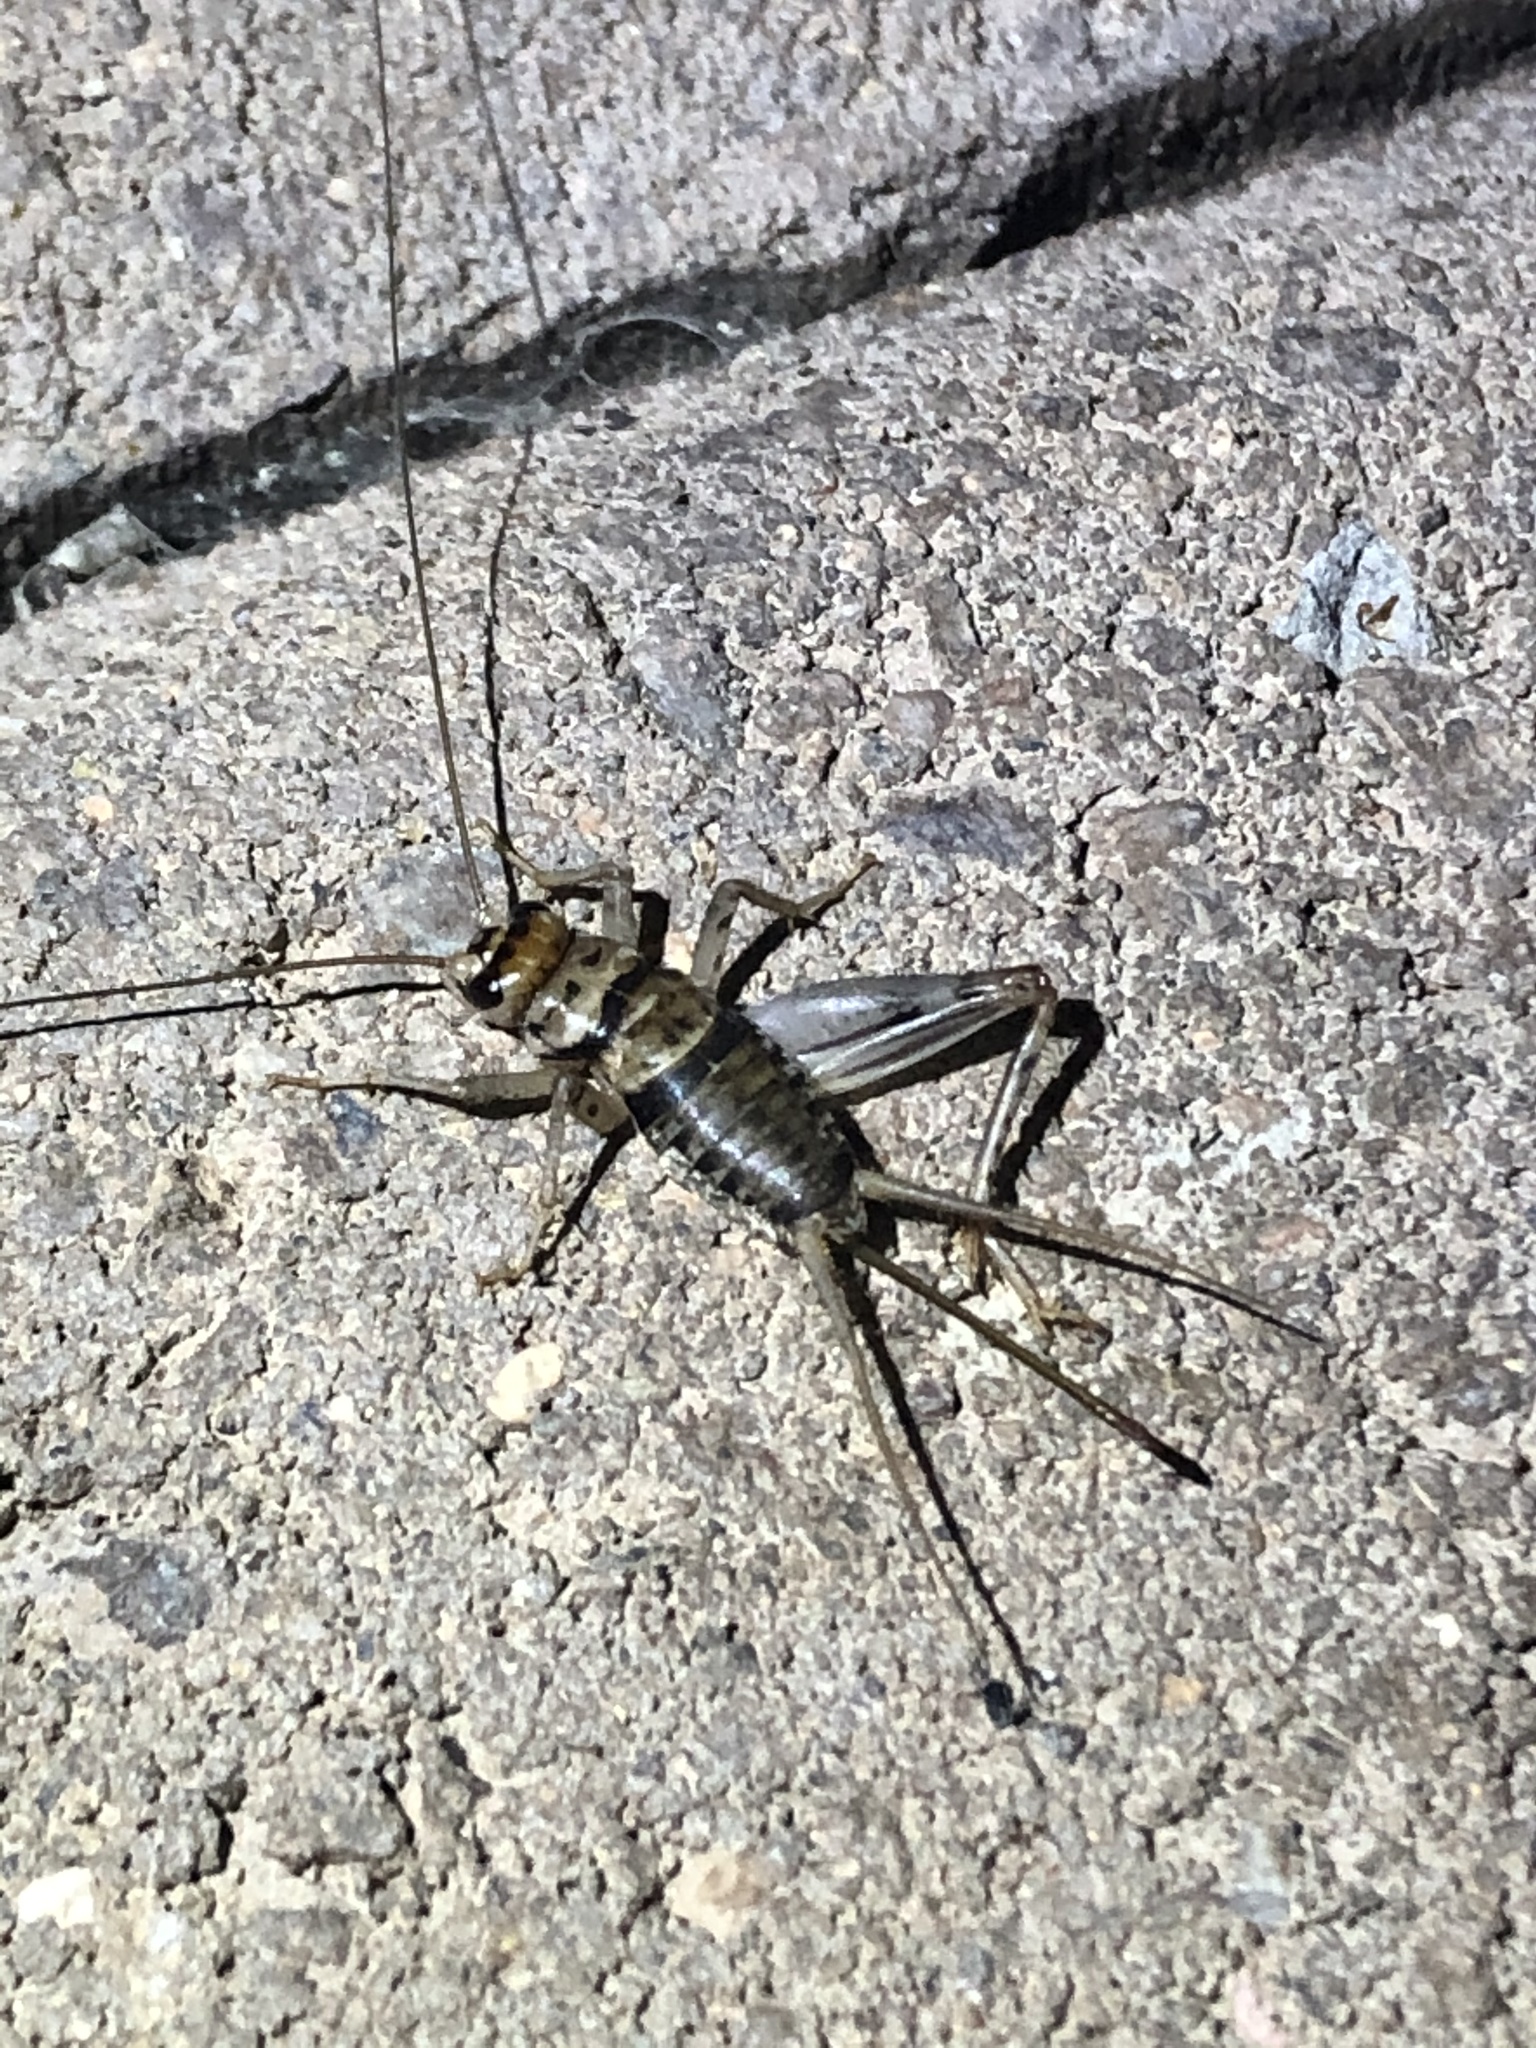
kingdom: Animalia
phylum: Arthropoda
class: Insecta
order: Orthoptera
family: Gryllidae
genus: Gryllodes
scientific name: Gryllodes sigillatus
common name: Tropical house cricket
